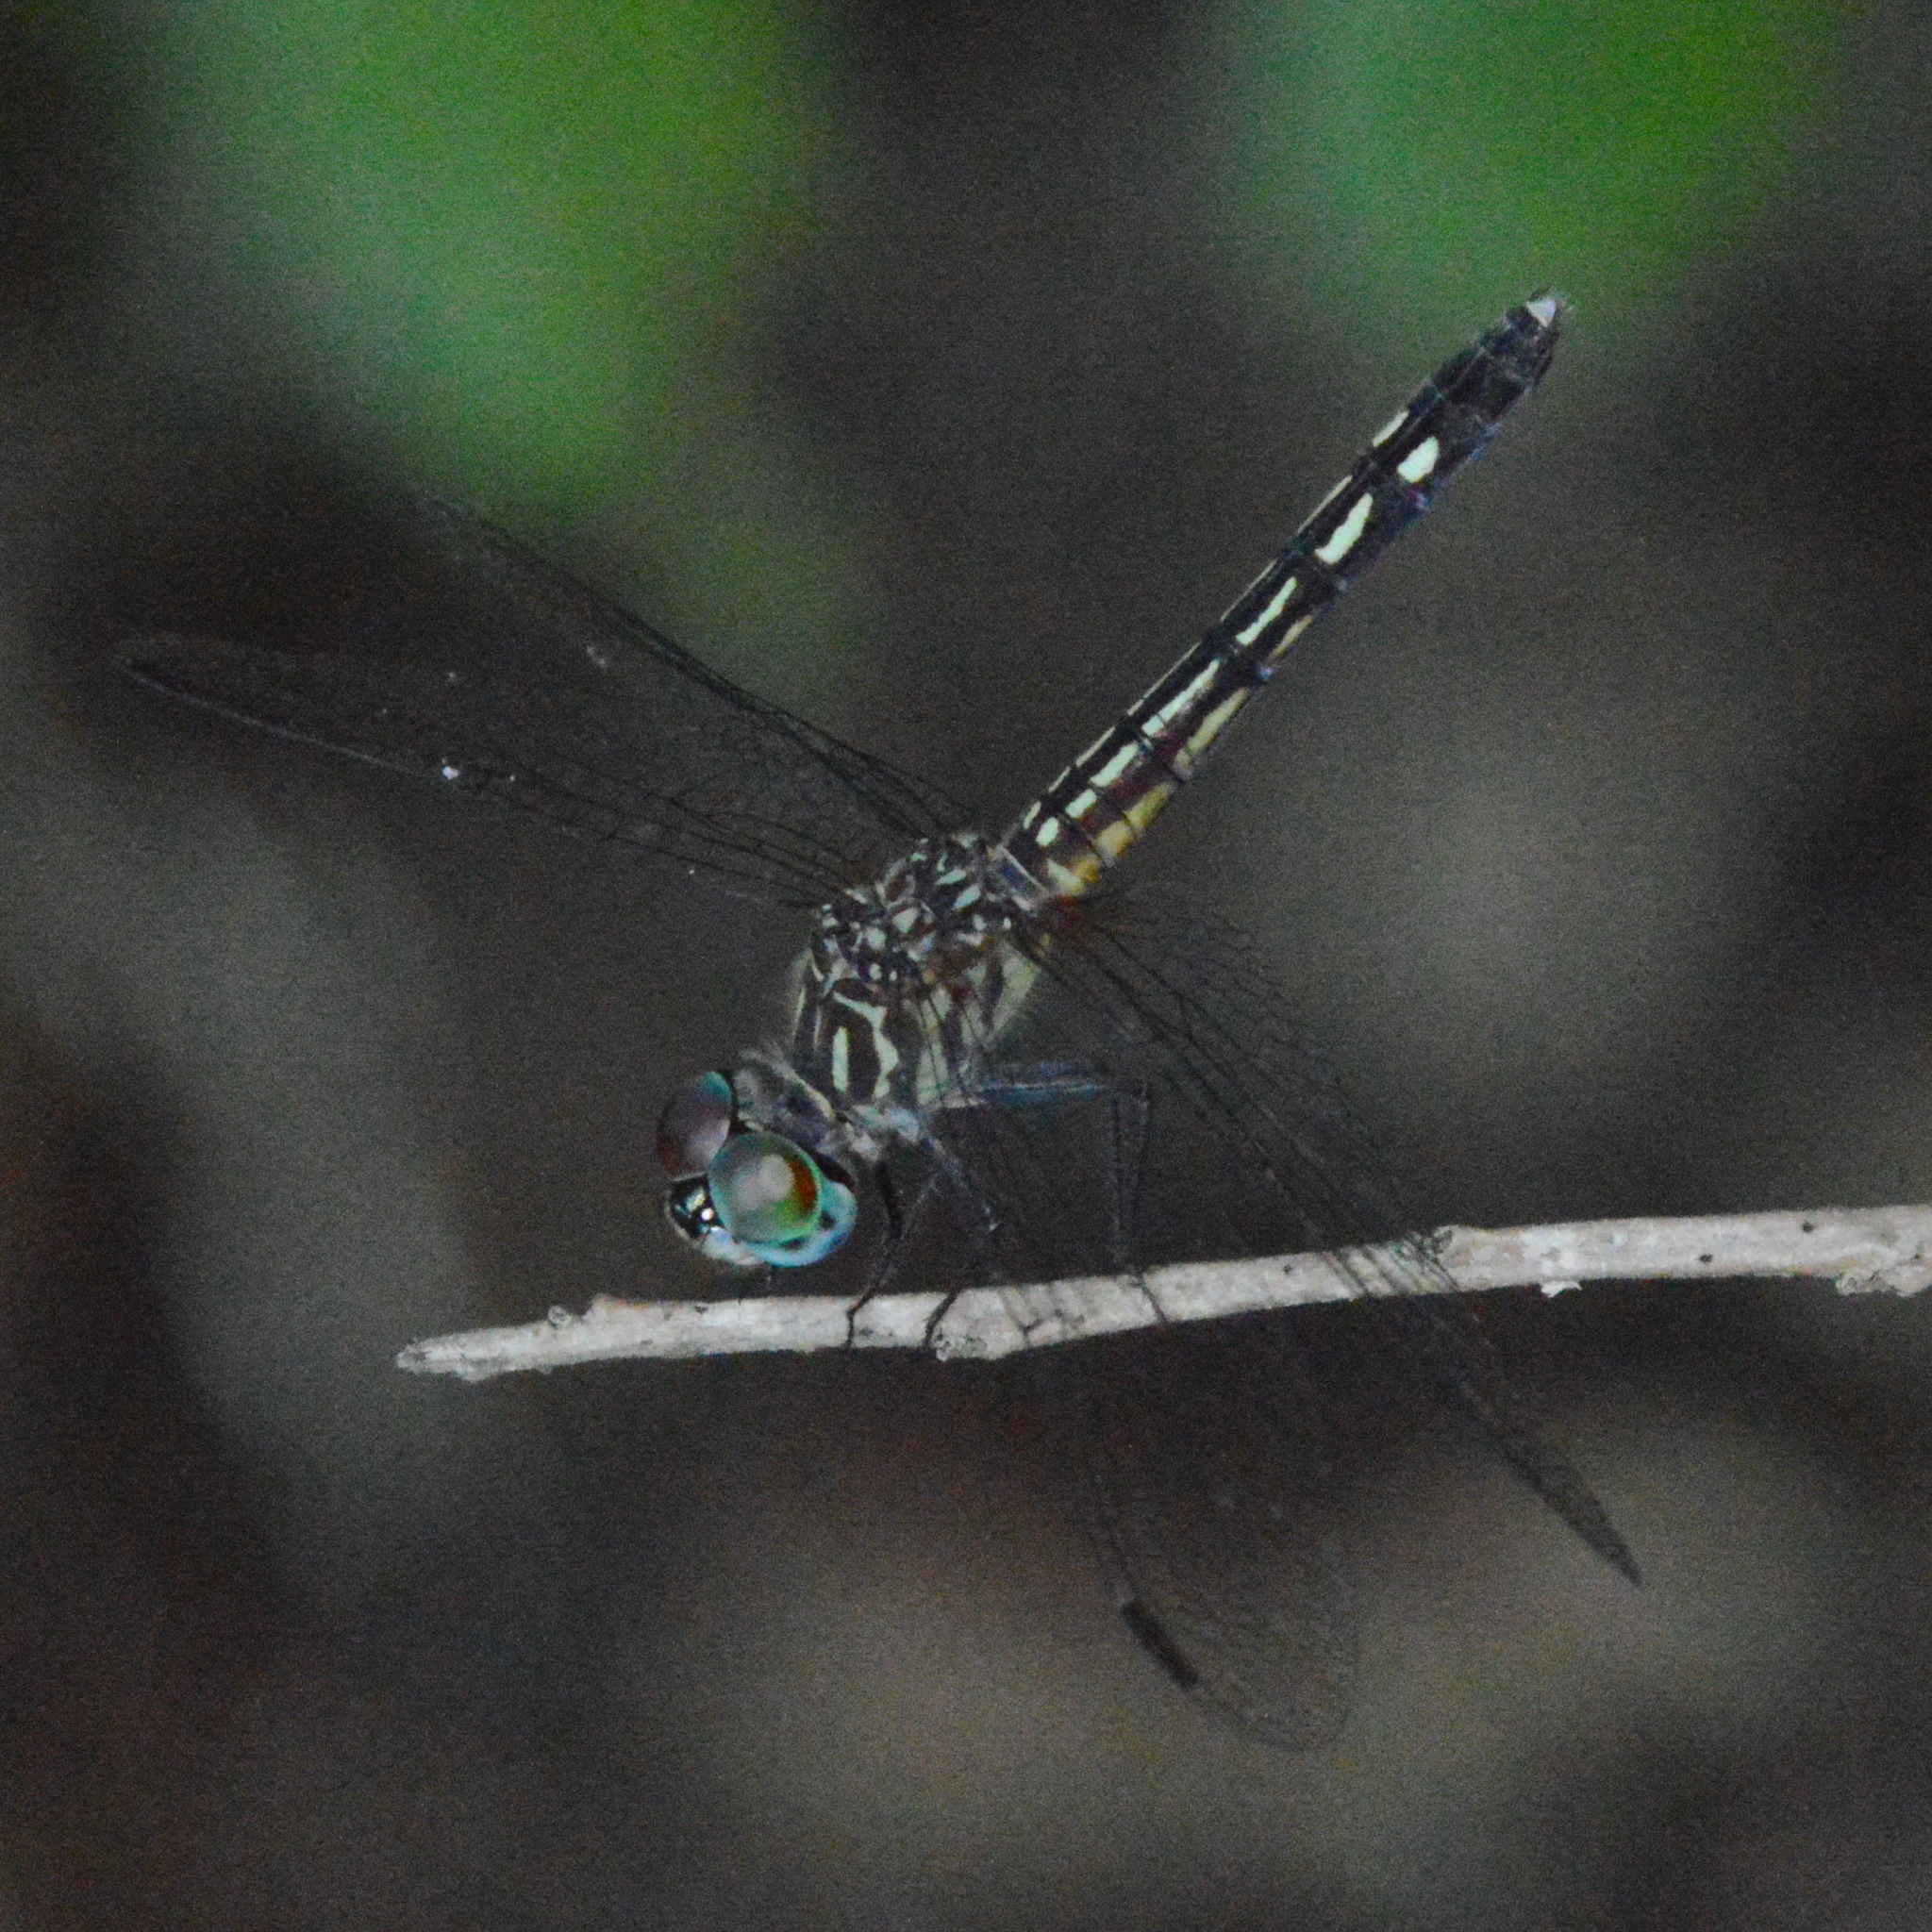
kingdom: Animalia
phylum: Arthropoda
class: Insecta
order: Odonata
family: Libellulidae
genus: Pachydiplax
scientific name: Pachydiplax longipennis
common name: Blue dasher
